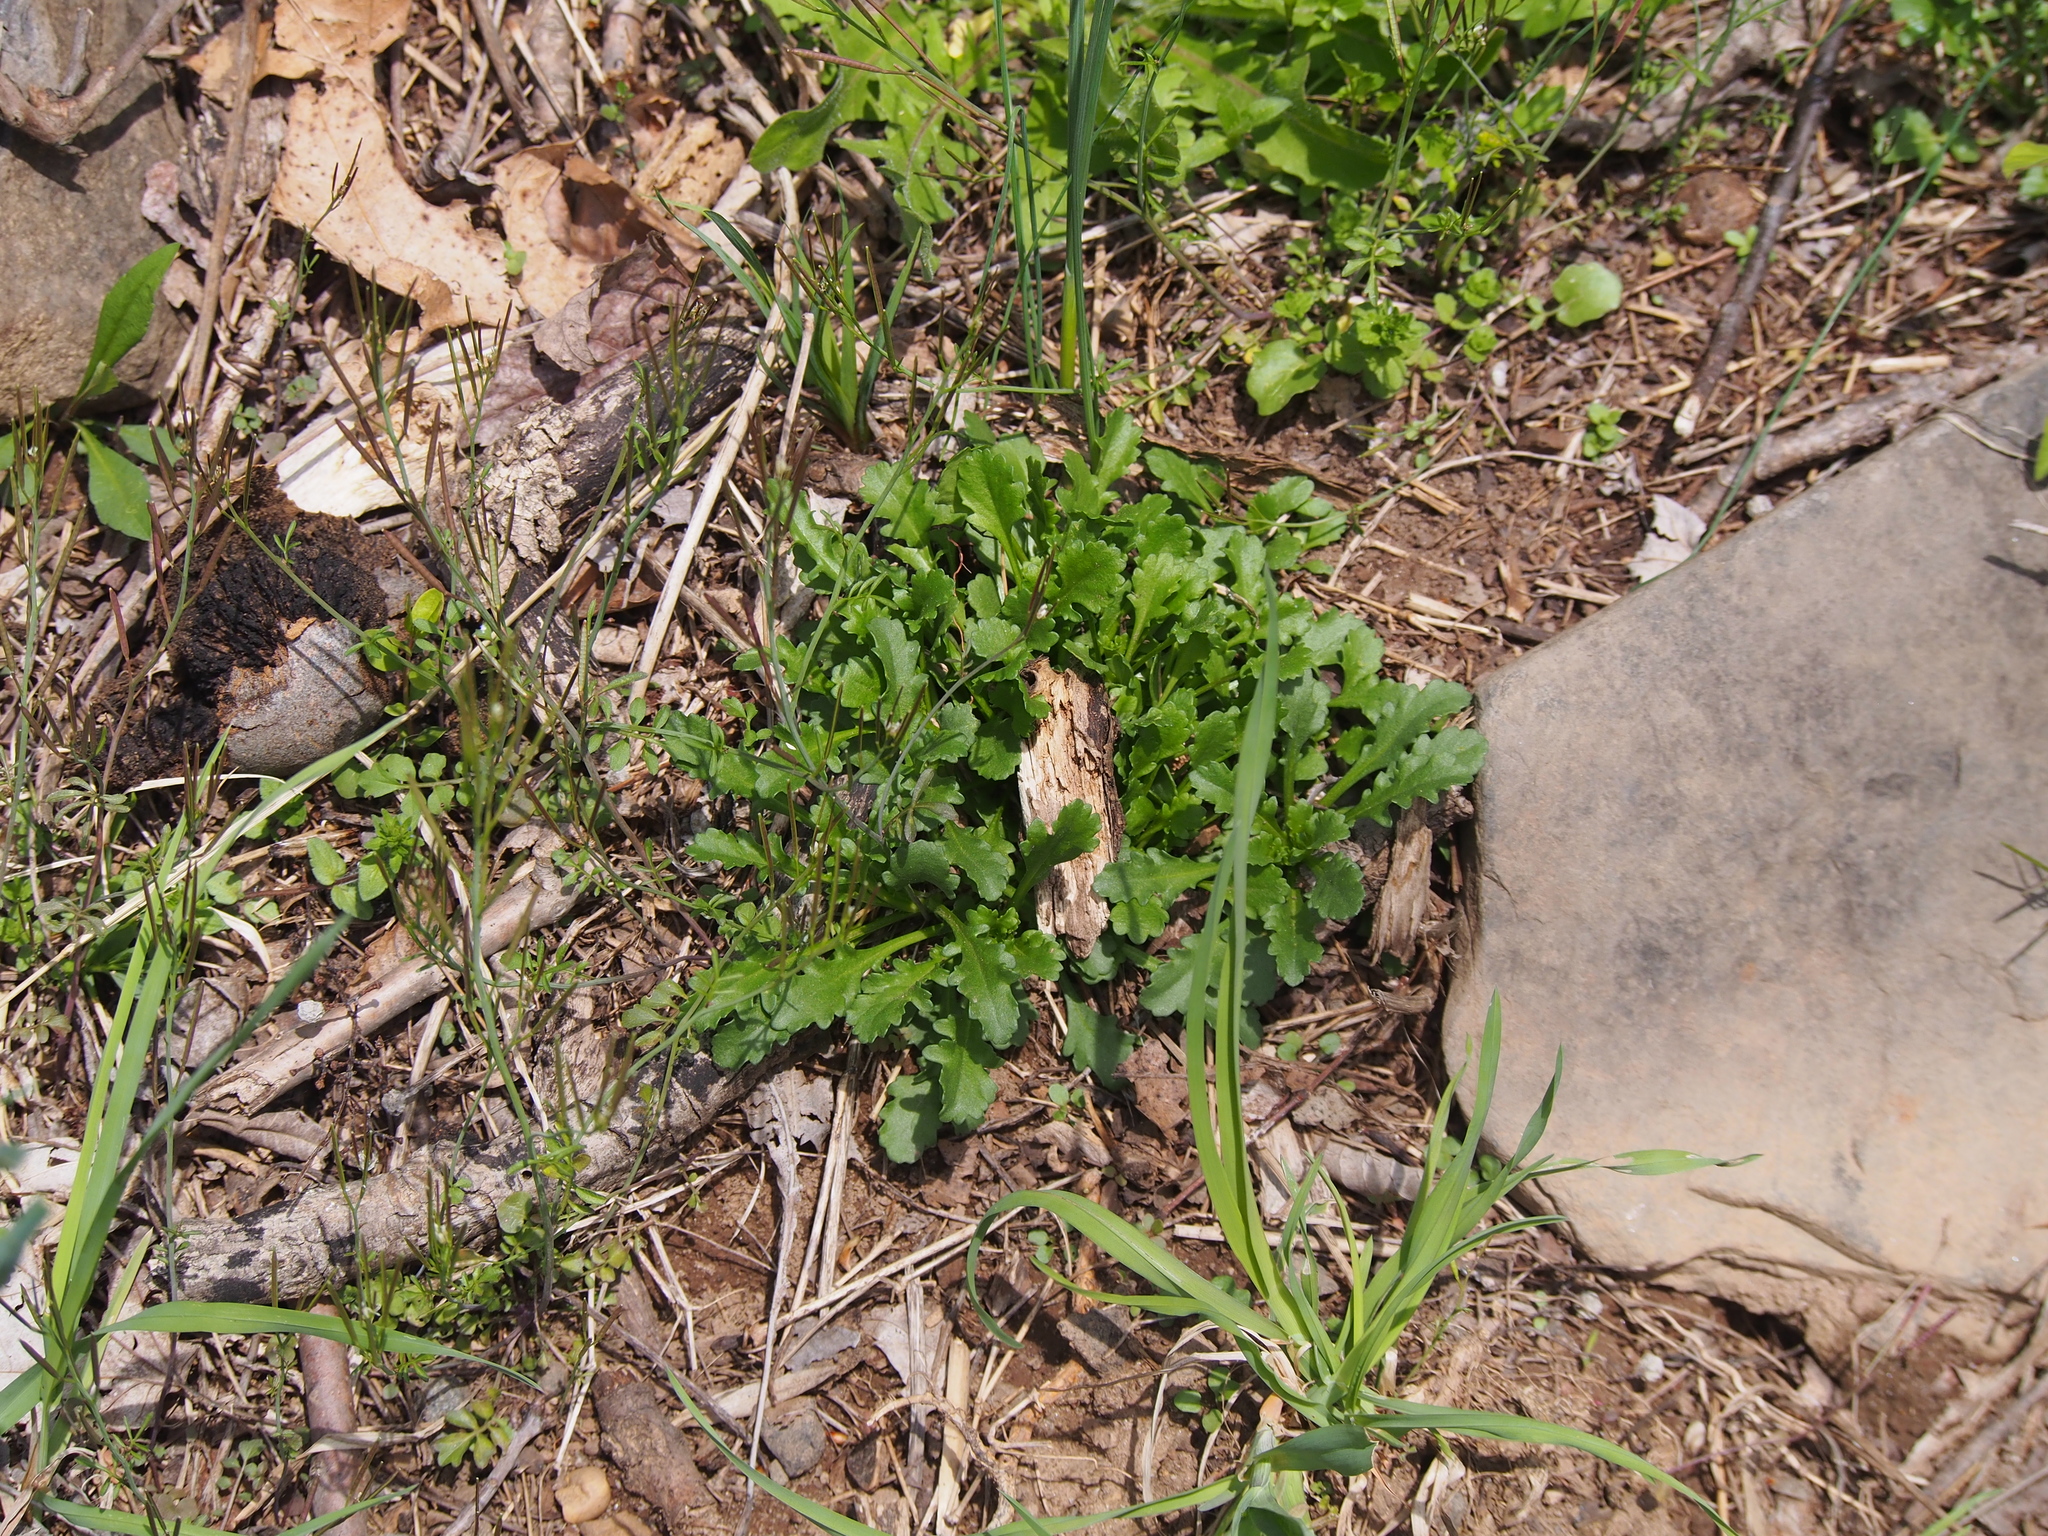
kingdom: Plantae
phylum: Tracheophyta
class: Magnoliopsida
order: Asterales
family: Asteraceae
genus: Leucanthemum
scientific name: Leucanthemum vulgare
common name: Oxeye daisy
